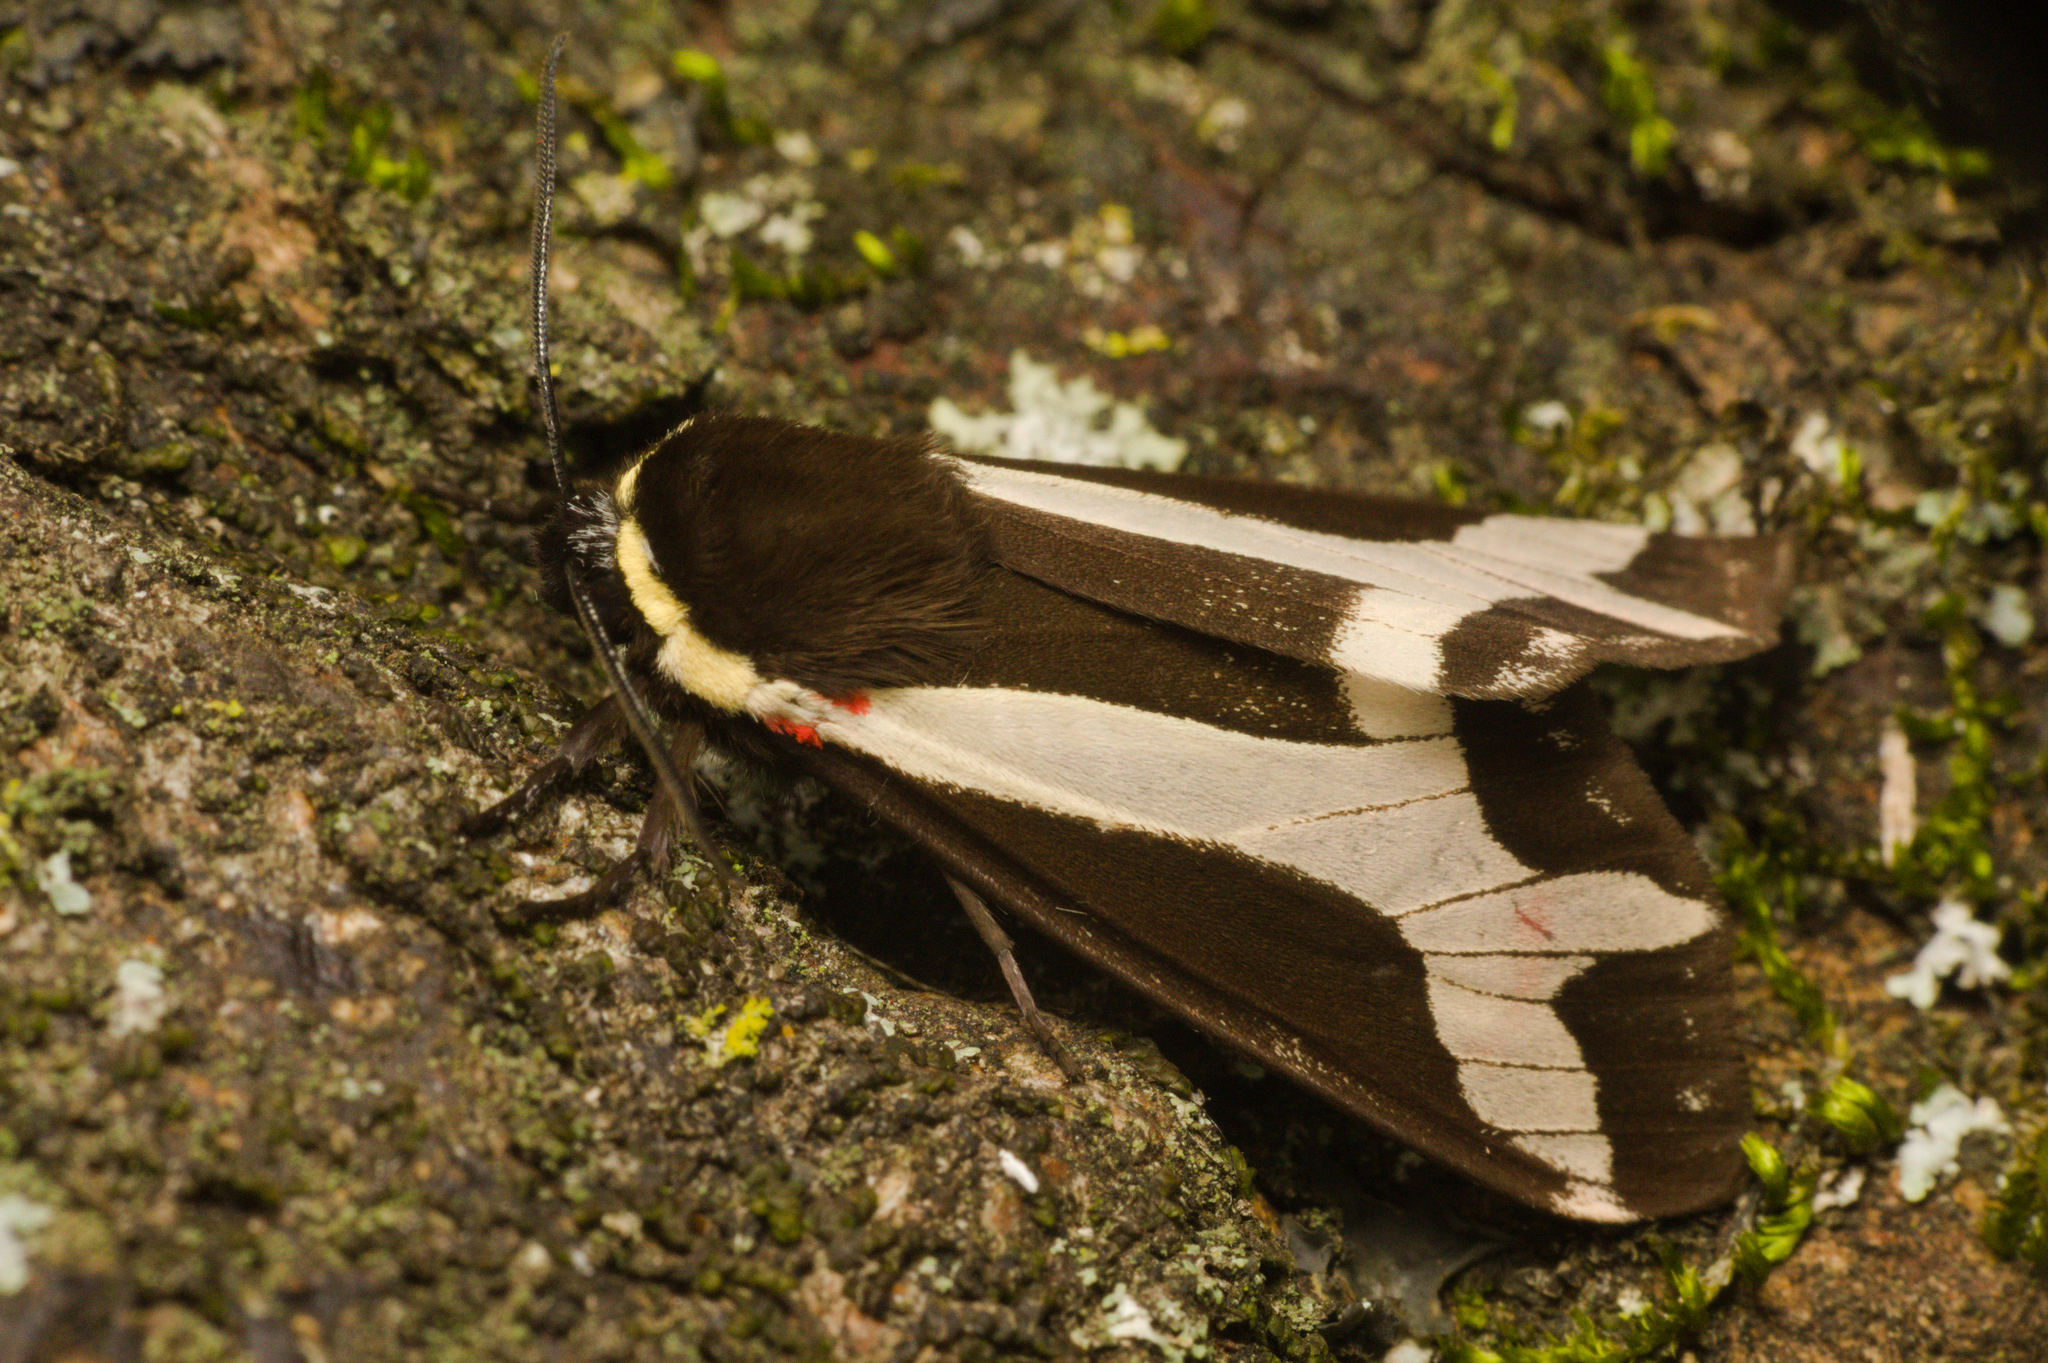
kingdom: Animalia
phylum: Arthropoda
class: Insecta
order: Lepidoptera
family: Erebidae
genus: Dysschema
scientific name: Dysschema sacrifica
